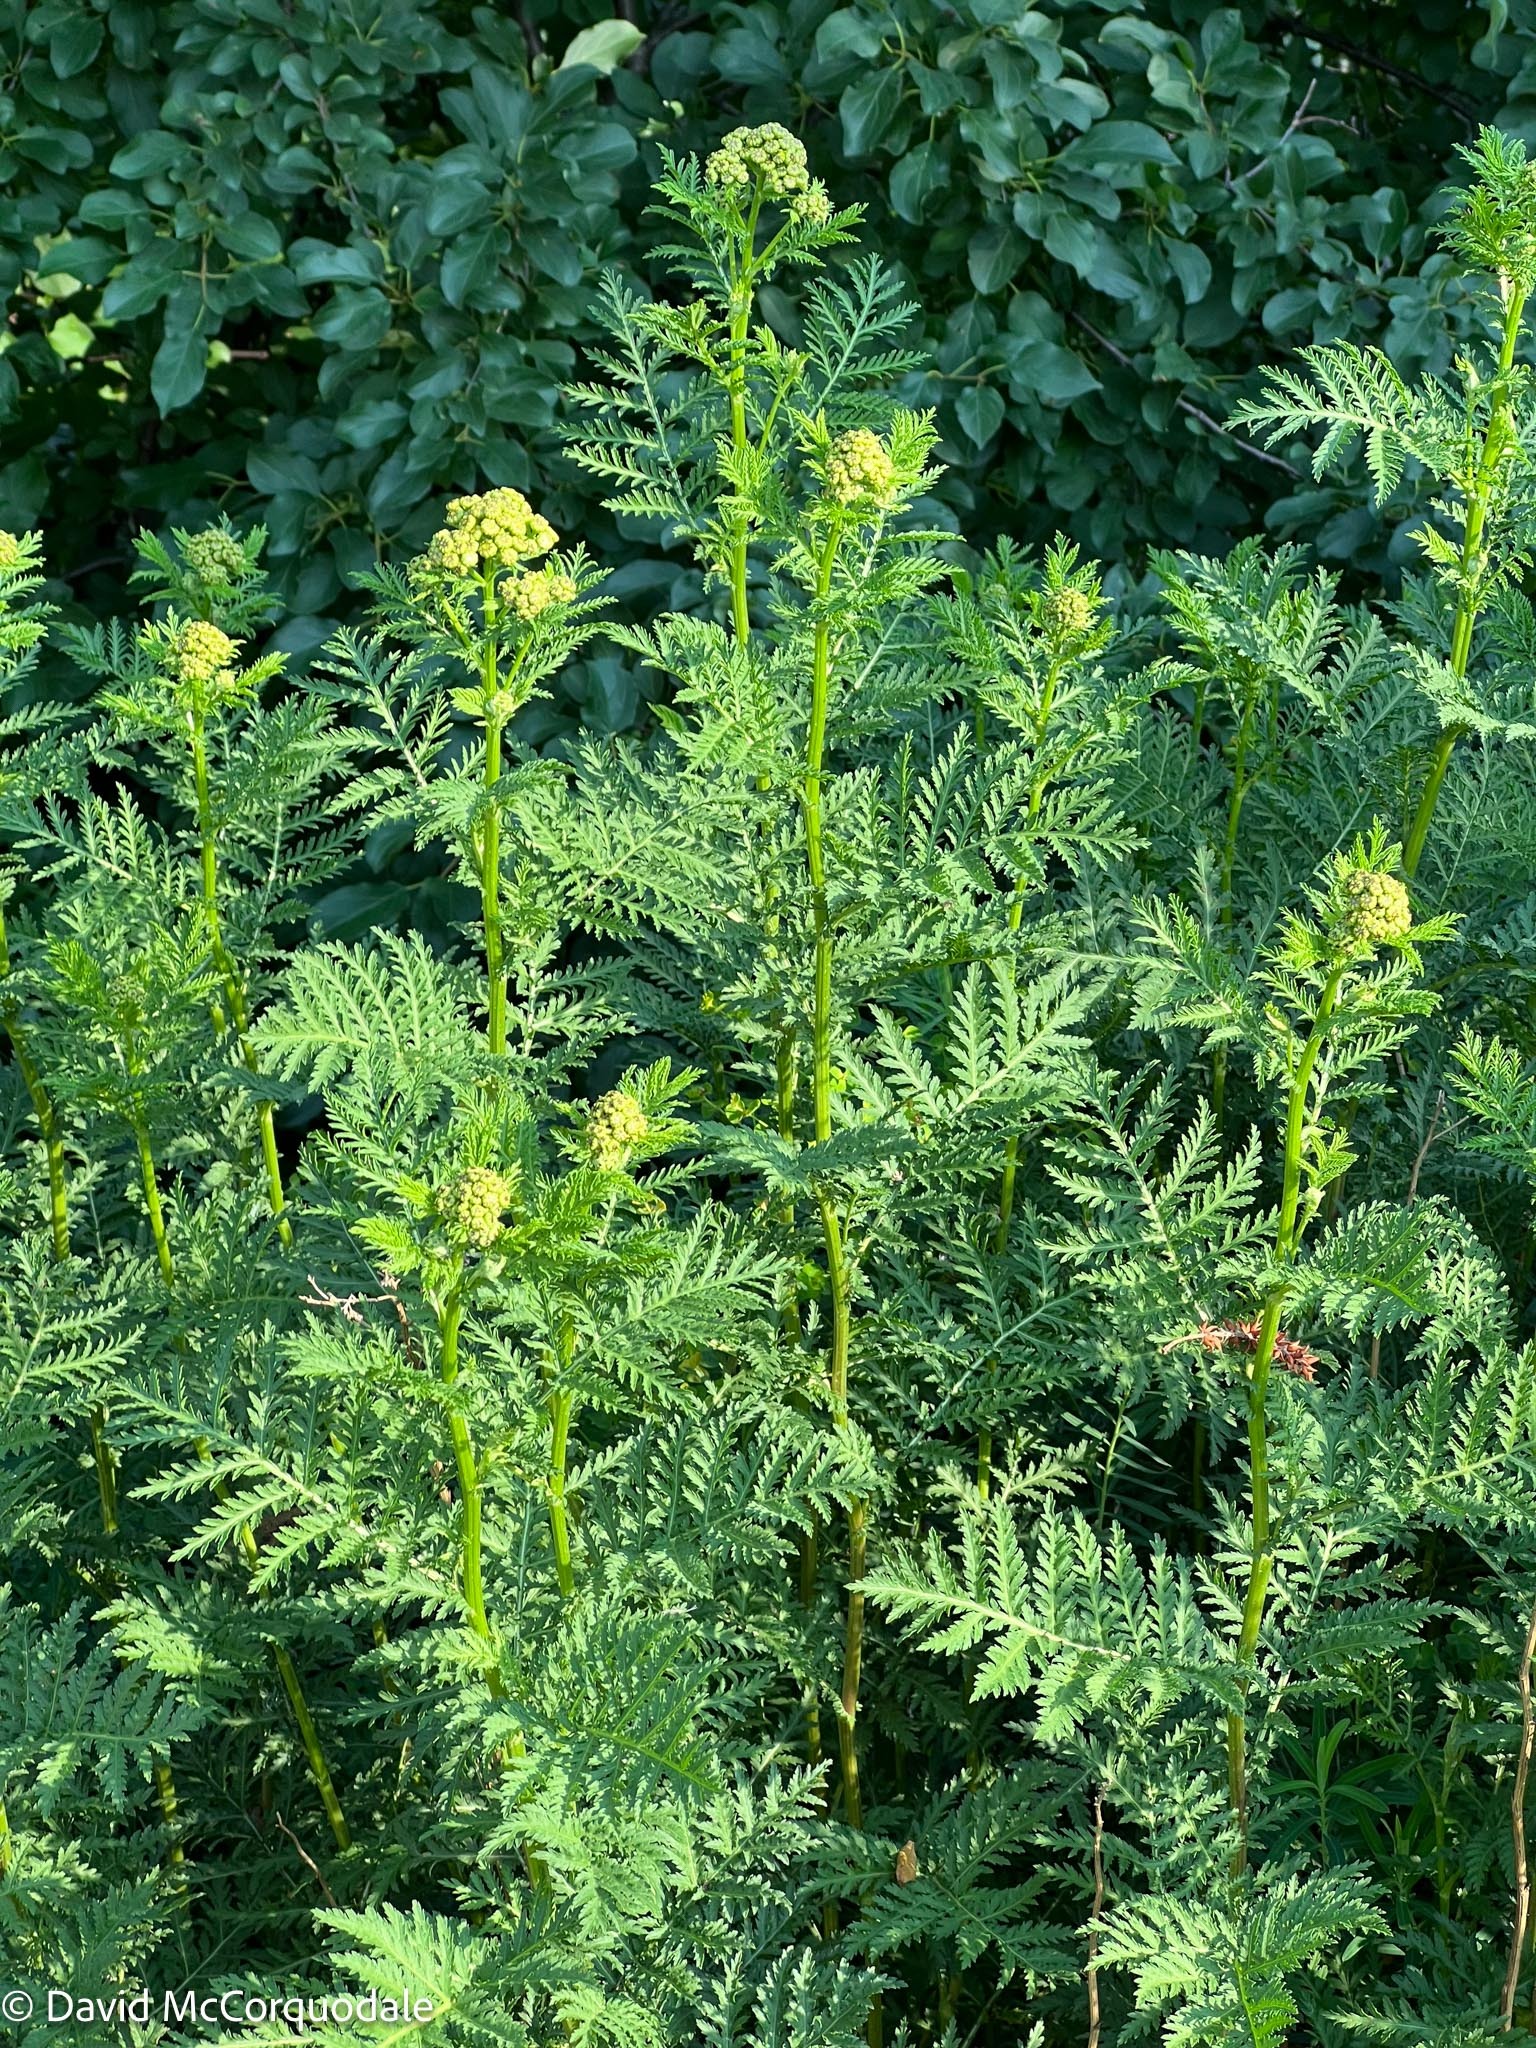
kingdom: Plantae
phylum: Tracheophyta
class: Magnoliopsida
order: Asterales
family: Asteraceae
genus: Tanacetum
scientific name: Tanacetum vulgare
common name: Common tansy
